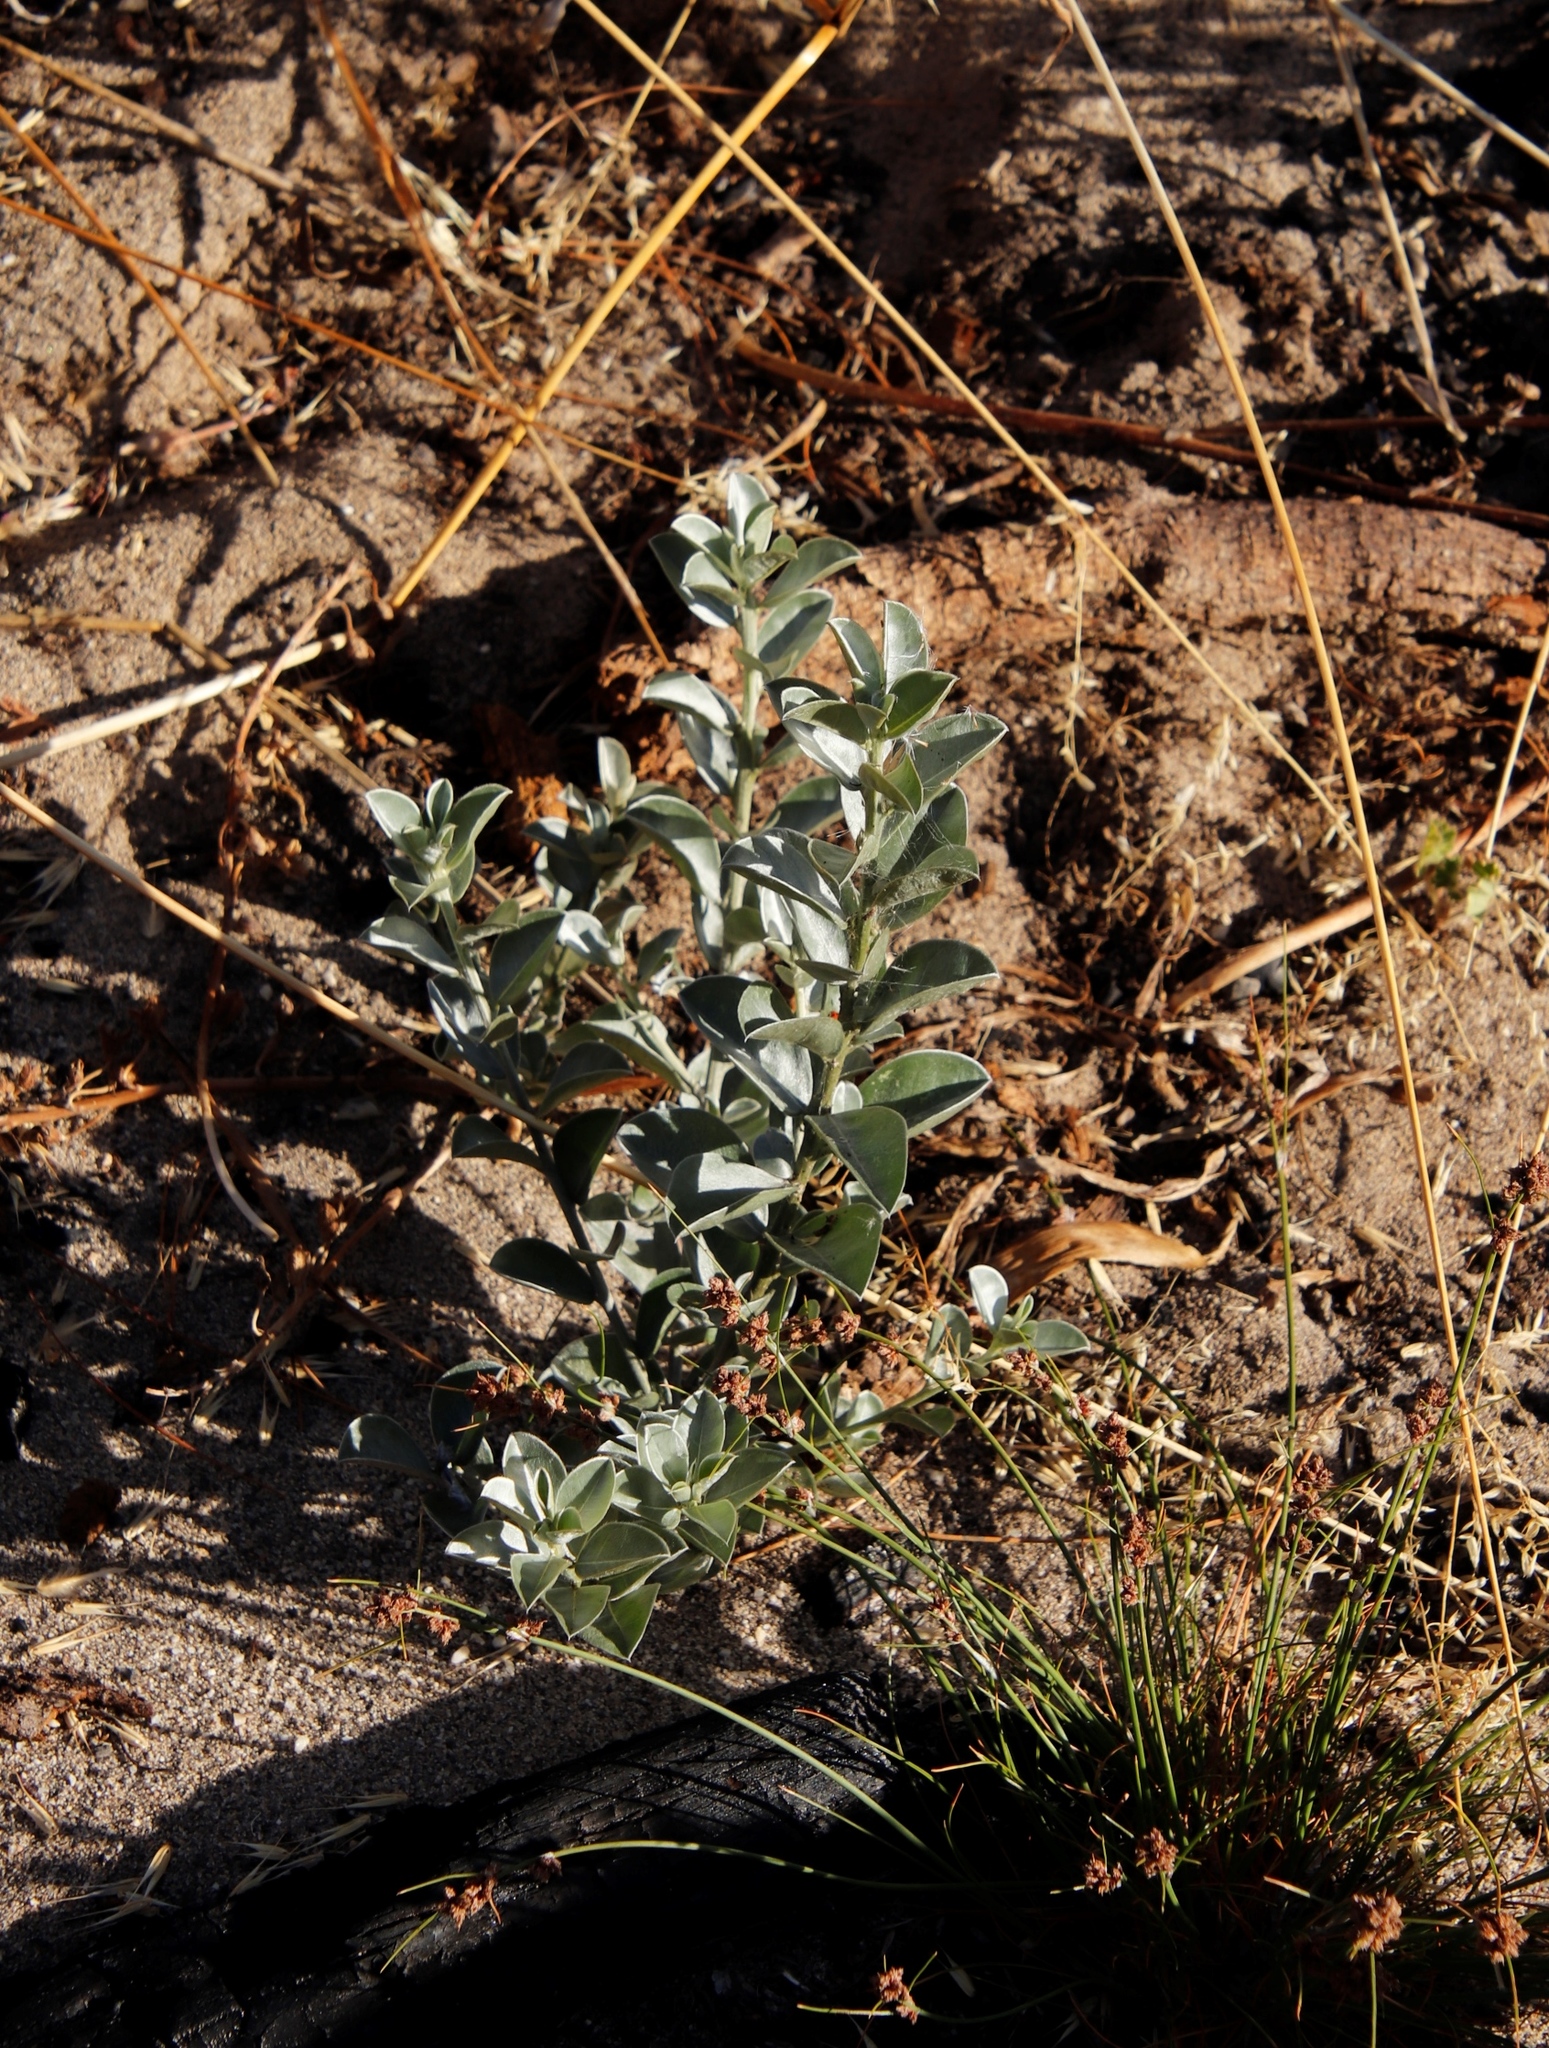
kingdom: Plantae
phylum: Tracheophyta
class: Magnoliopsida
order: Fabales
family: Fabaceae
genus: Podalyria
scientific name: Podalyria sericea
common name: Silver podalyria
